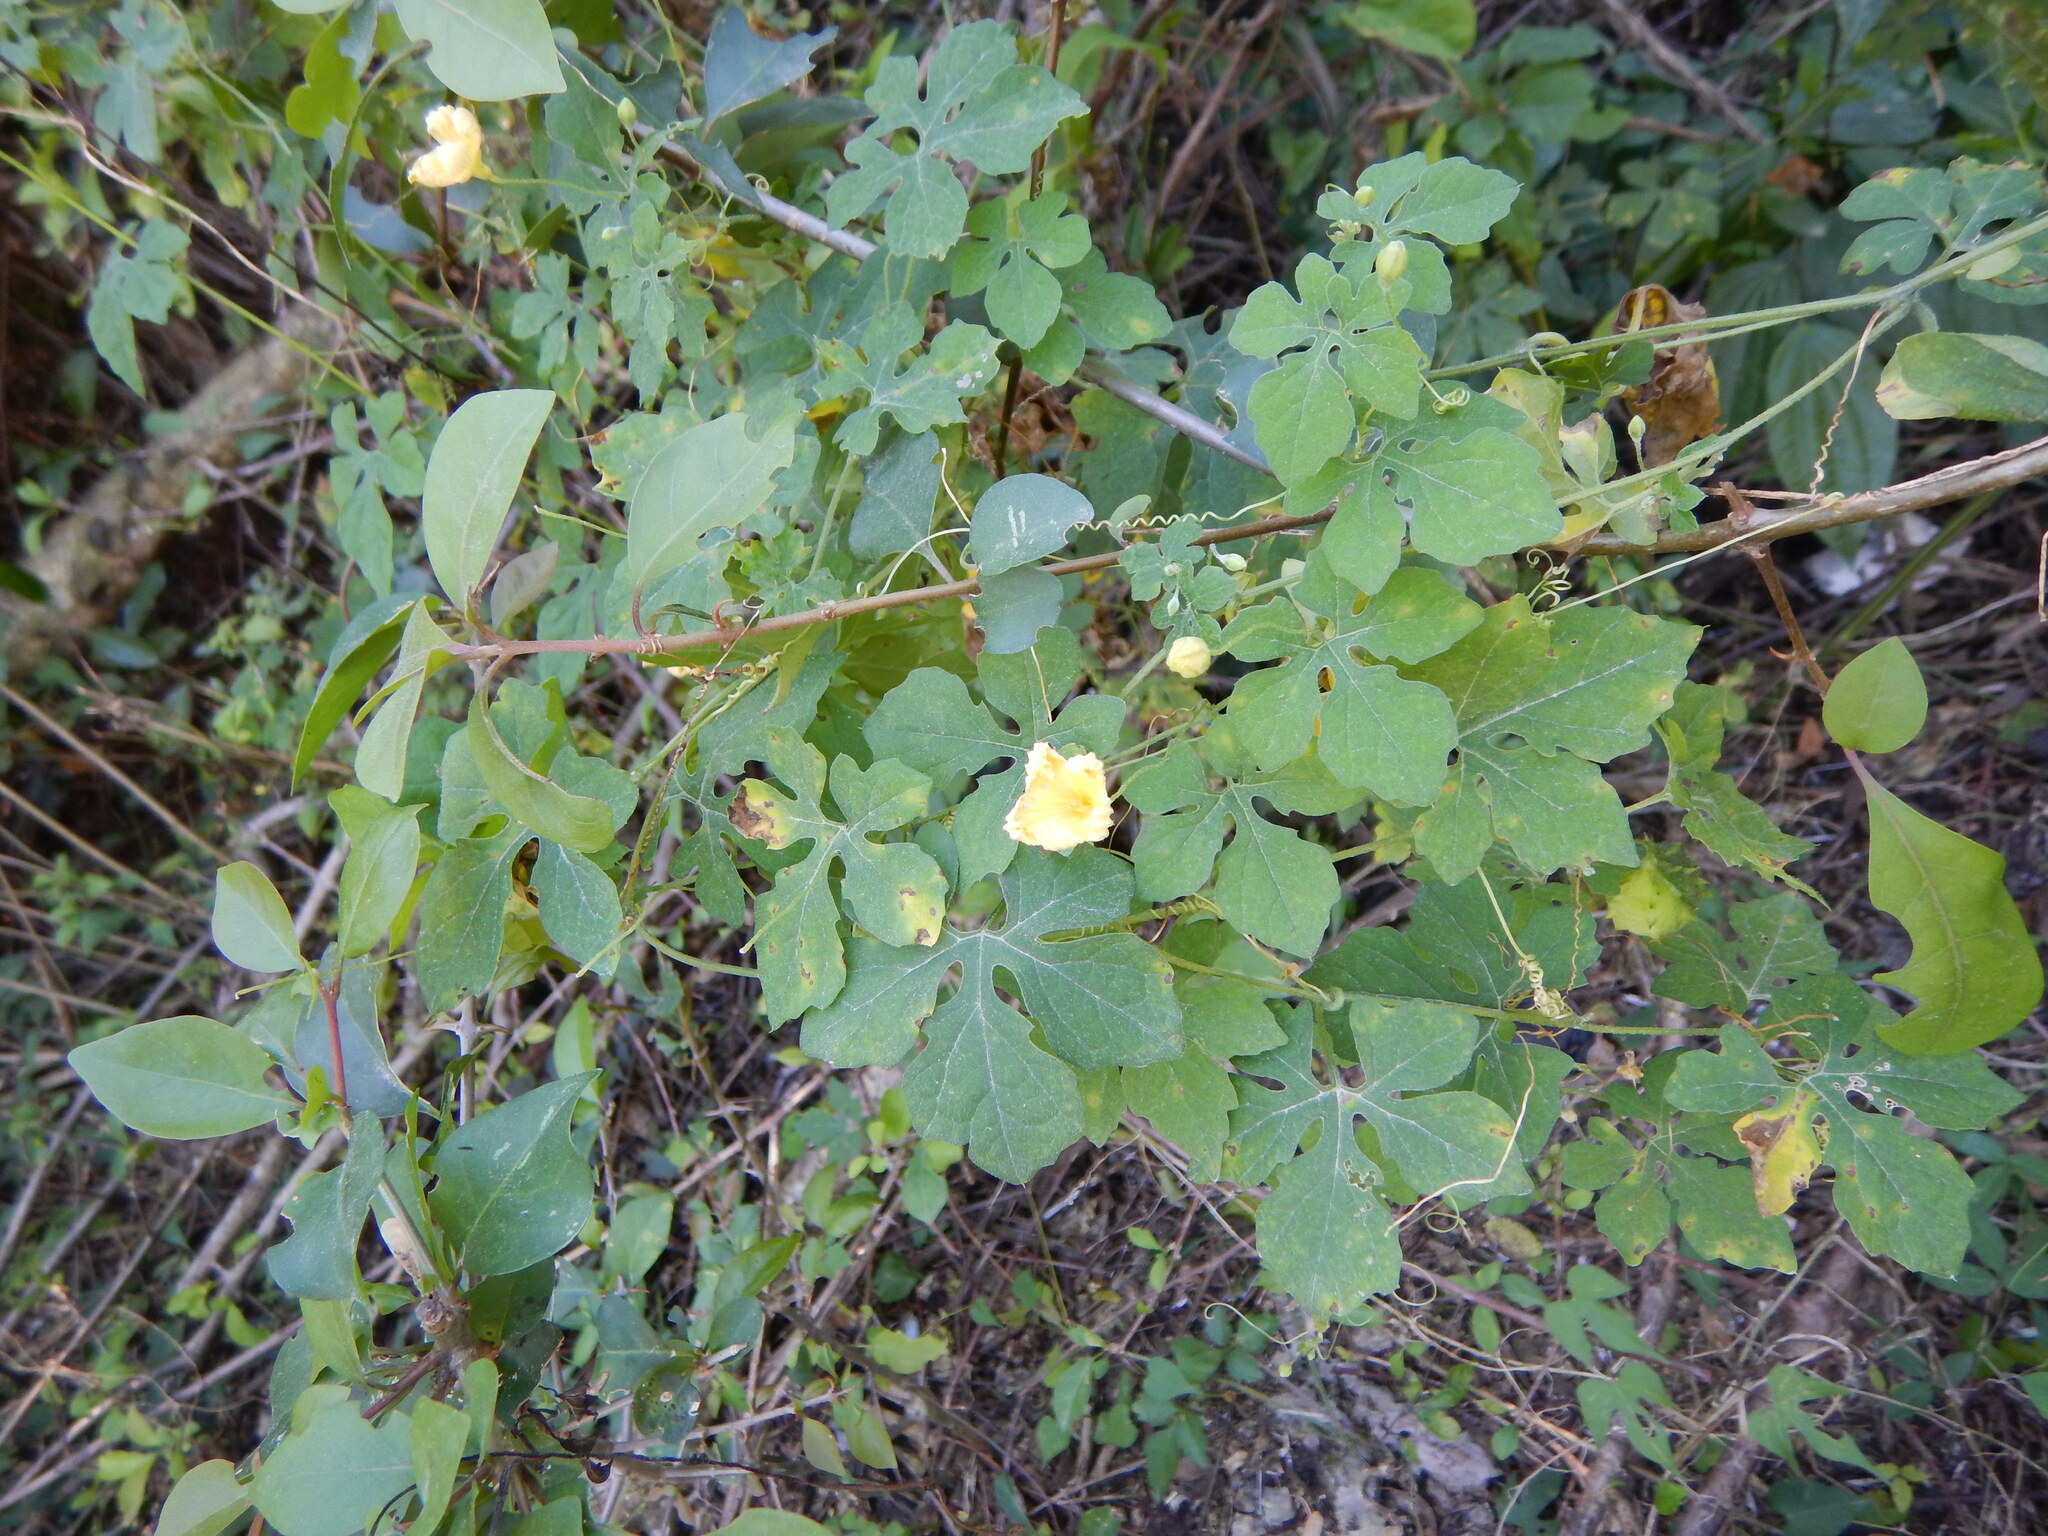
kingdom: Plantae
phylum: Tracheophyta
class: Magnoliopsida
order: Cucurbitales
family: Cucurbitaceae
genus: Momordica
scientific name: Momordica charantia
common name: Balsampear
